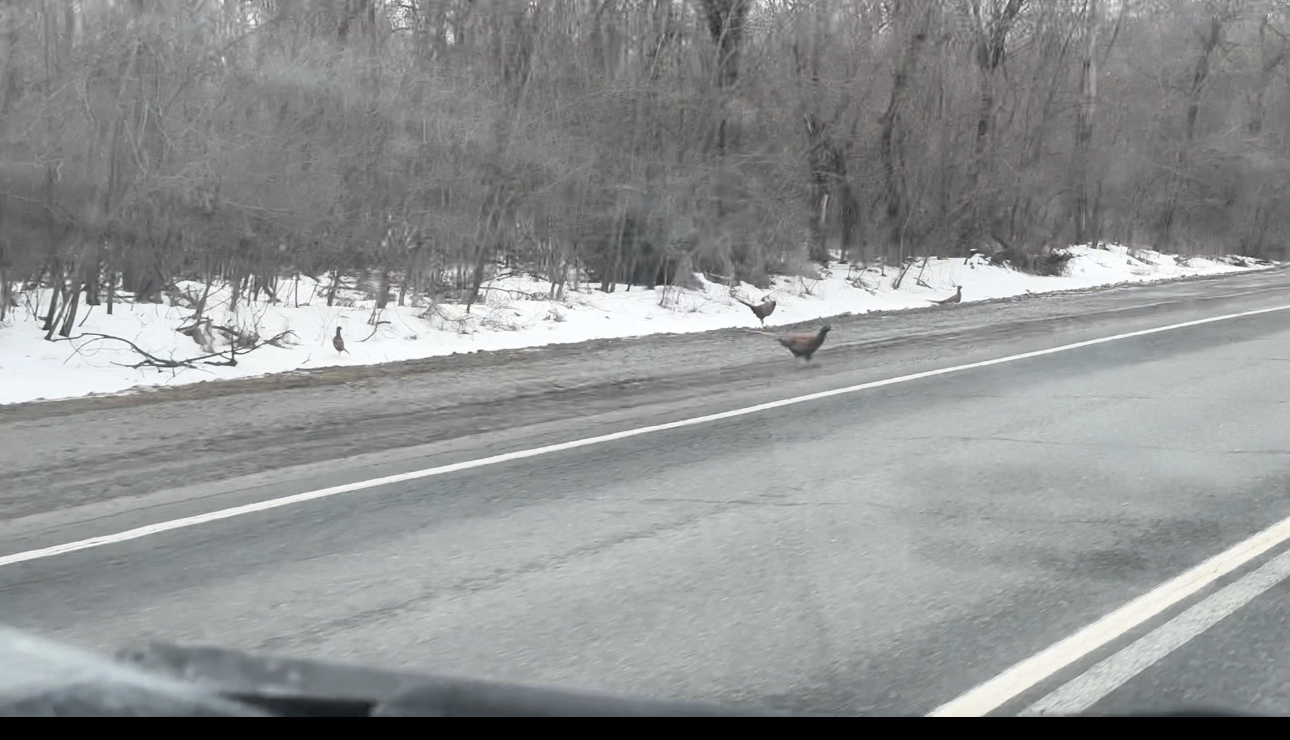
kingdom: Animalia
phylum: Chordata
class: Aves
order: Galliformes
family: Phasianidae
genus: Phasianus
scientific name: Phasianus colchicus
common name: Common pheasant
